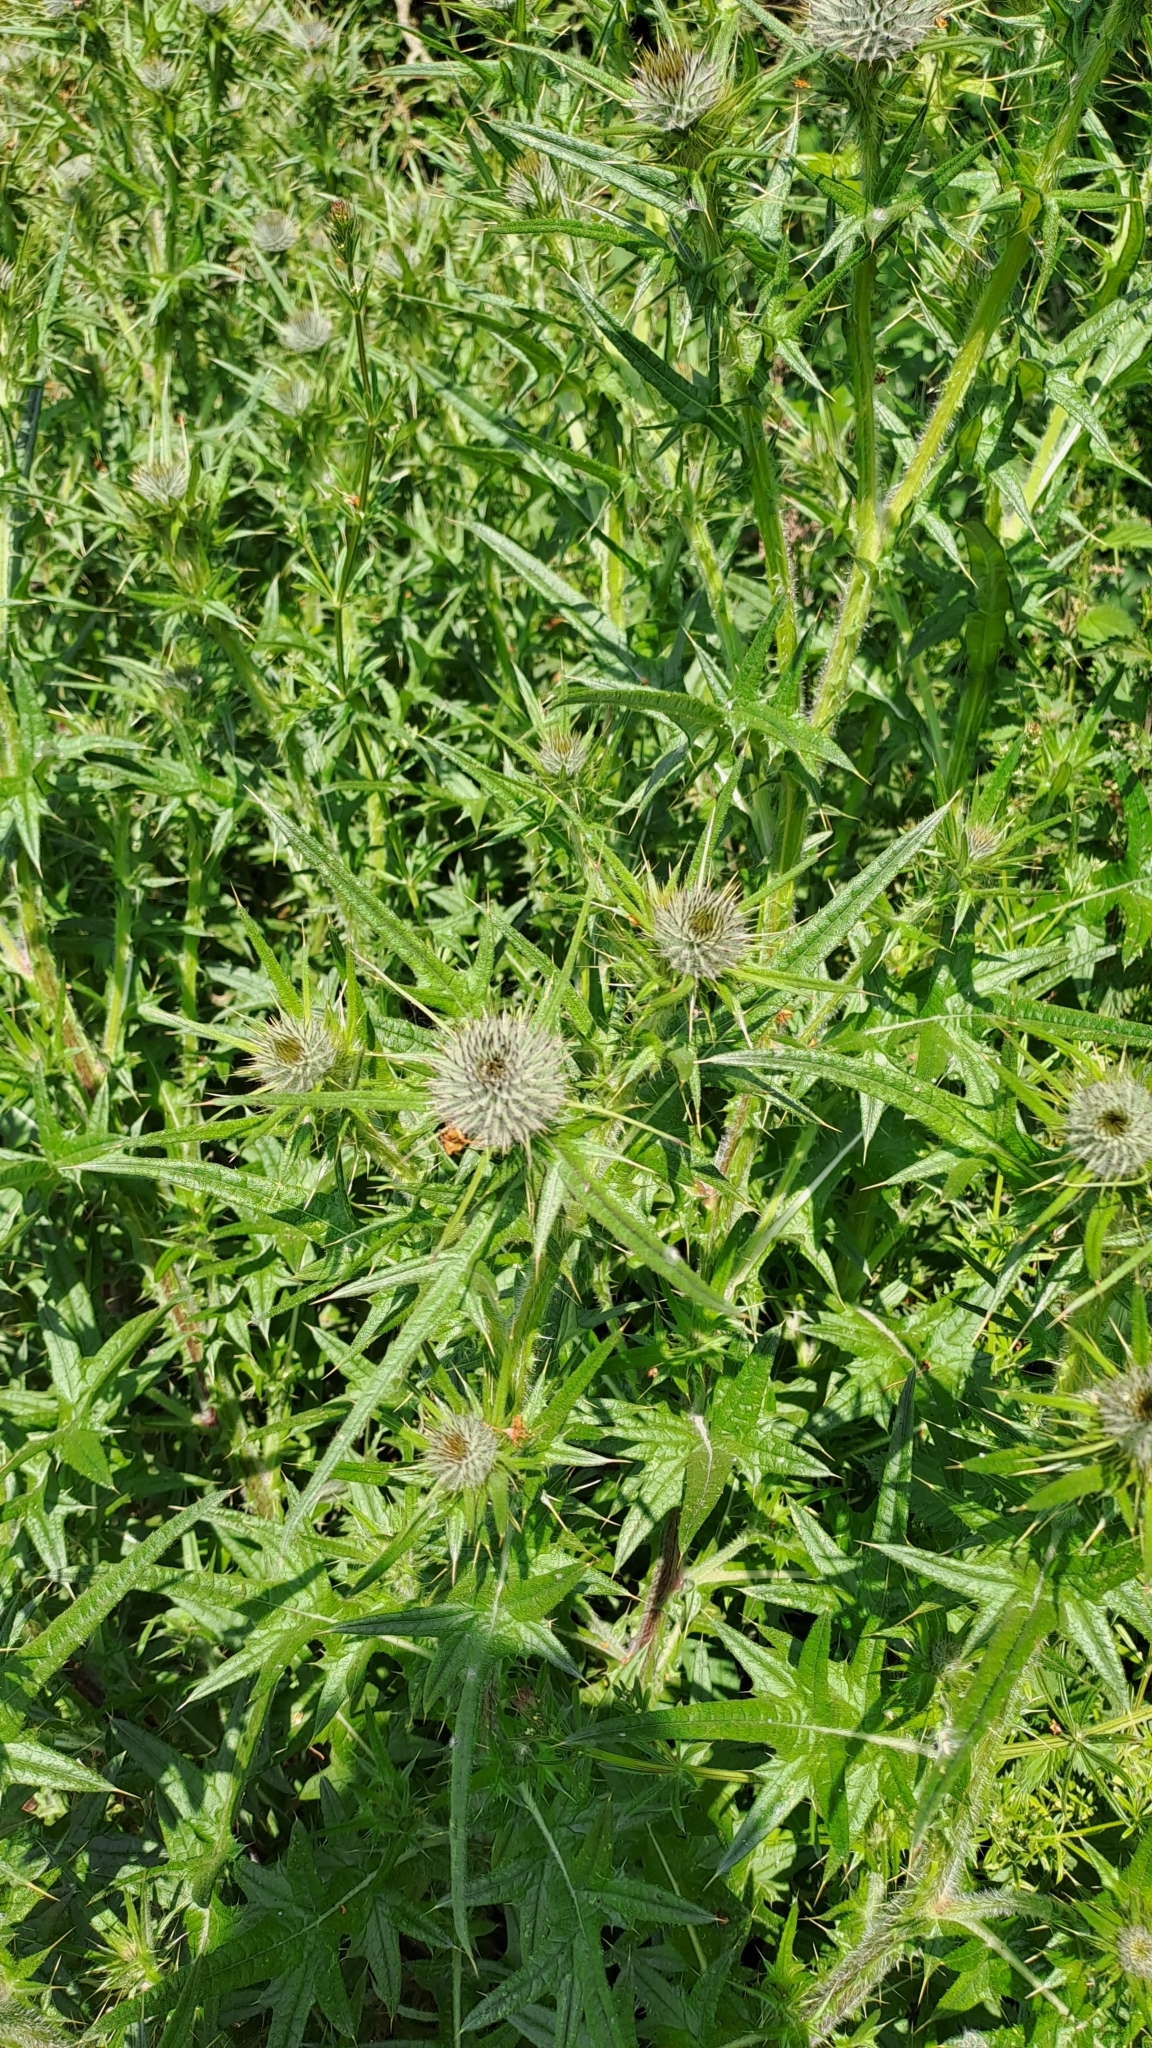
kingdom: Plantae
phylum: Tracheophyta
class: Magnoliopsida
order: Asterales
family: Asteraceae
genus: Cirsium
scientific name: Cirsium vulgare
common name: Bull thistle
